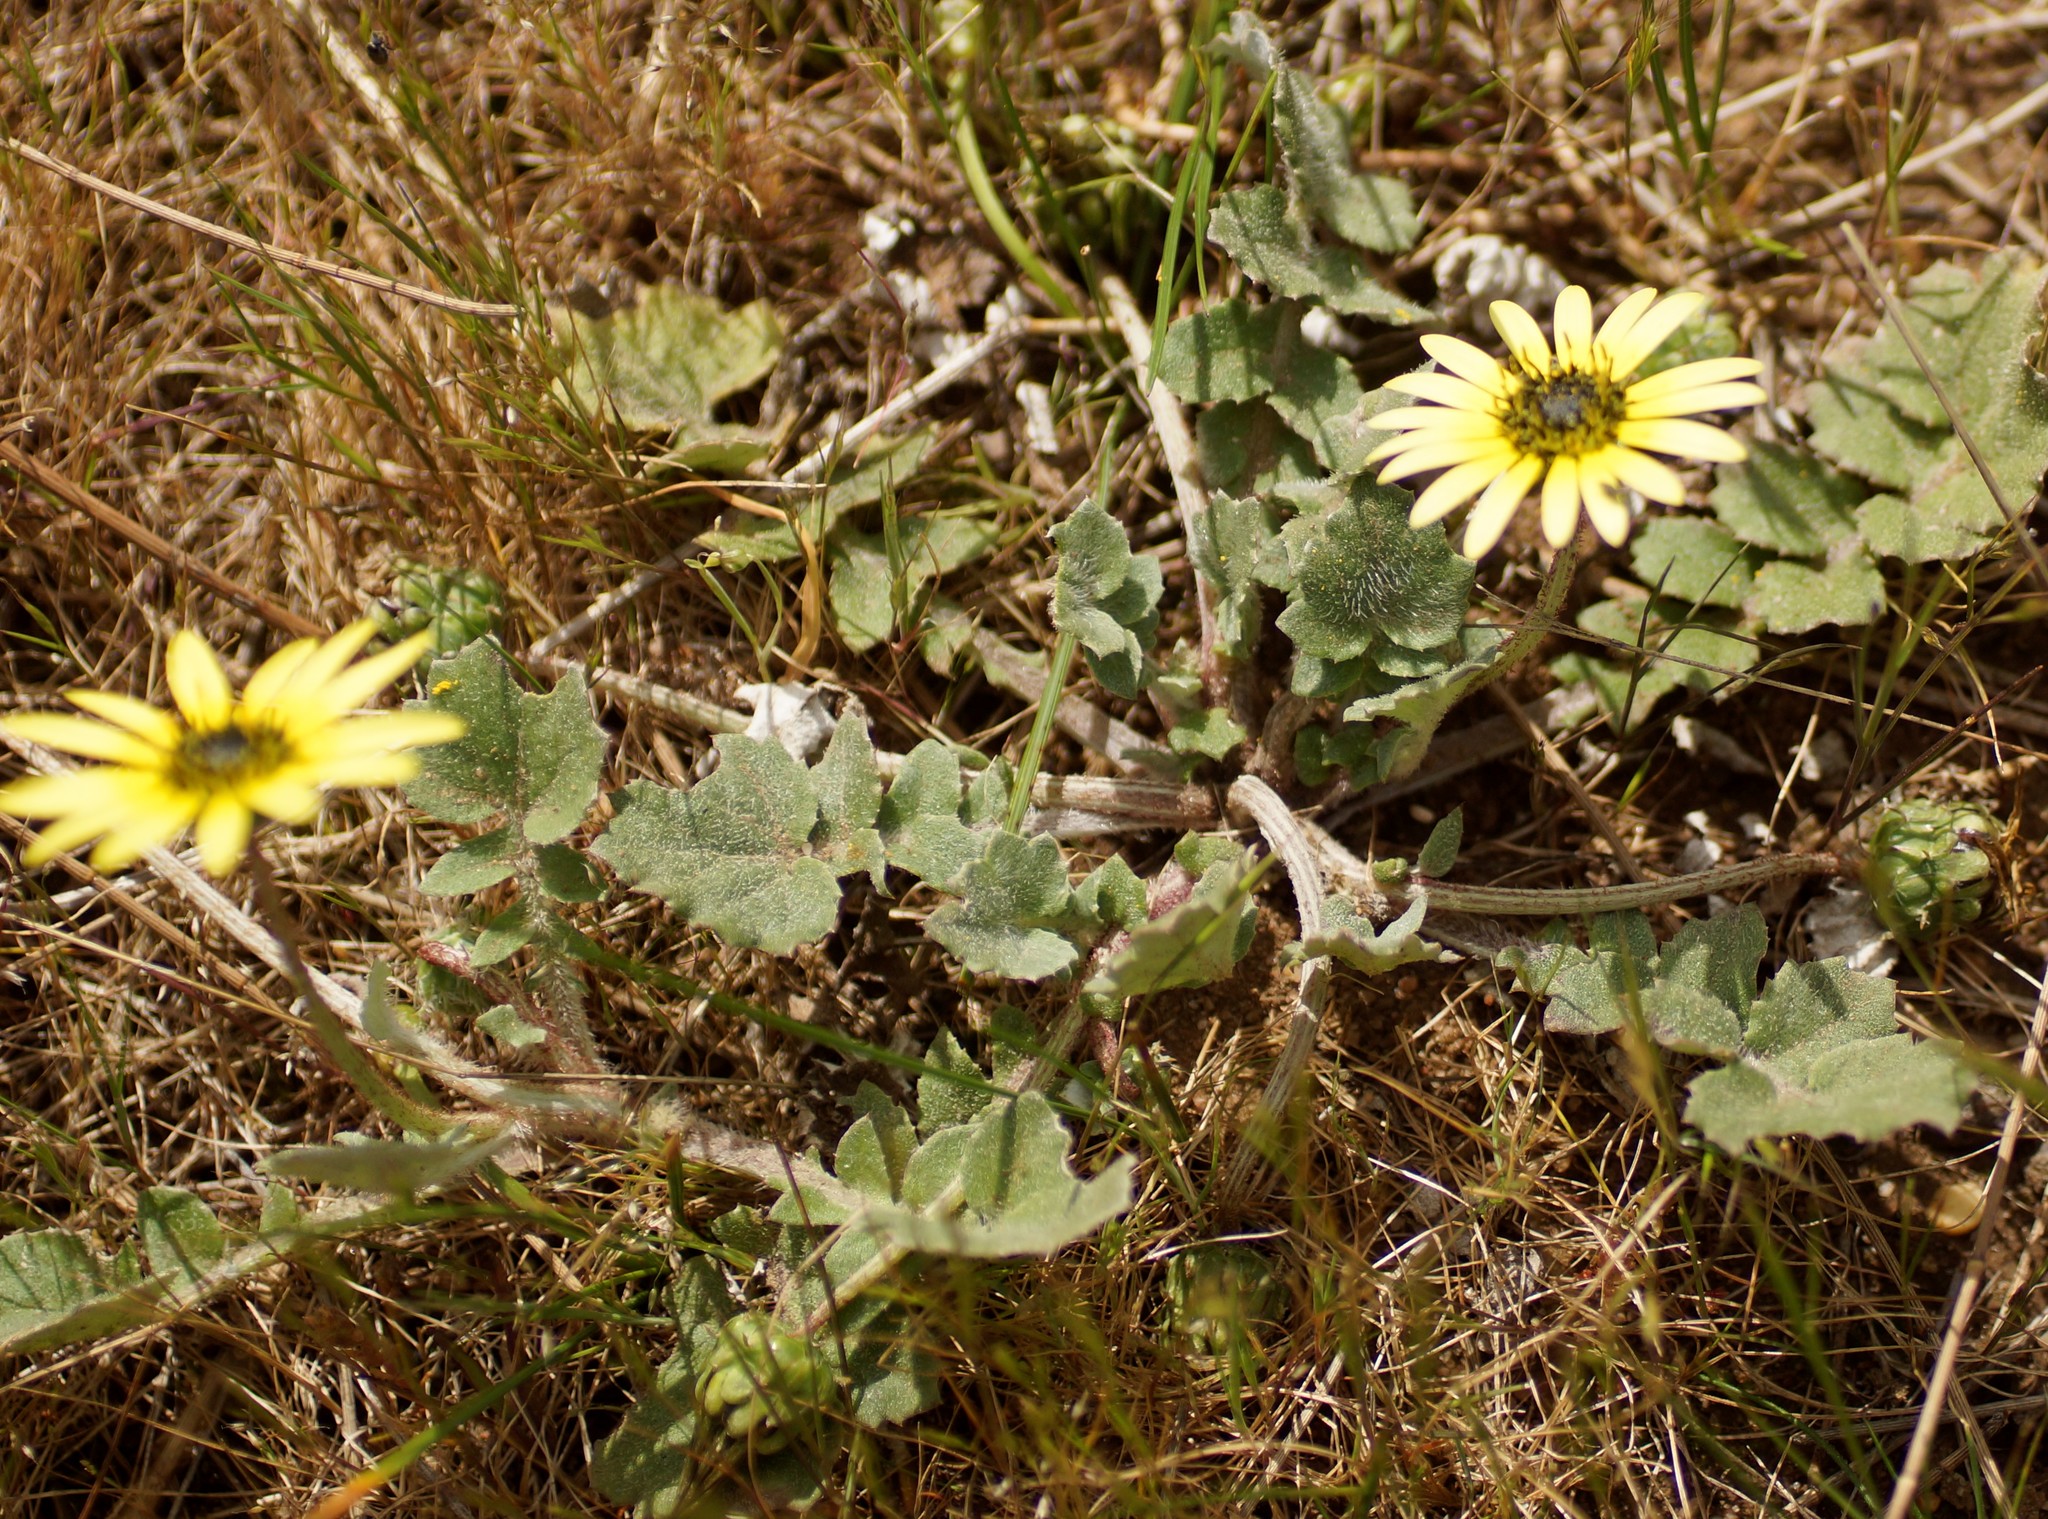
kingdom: Plantae
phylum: Tracheophyta
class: Magnoliopsida
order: Asterales
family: Asteraceae
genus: Arctotheca
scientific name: Arctotheca calendula
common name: Capeweed
